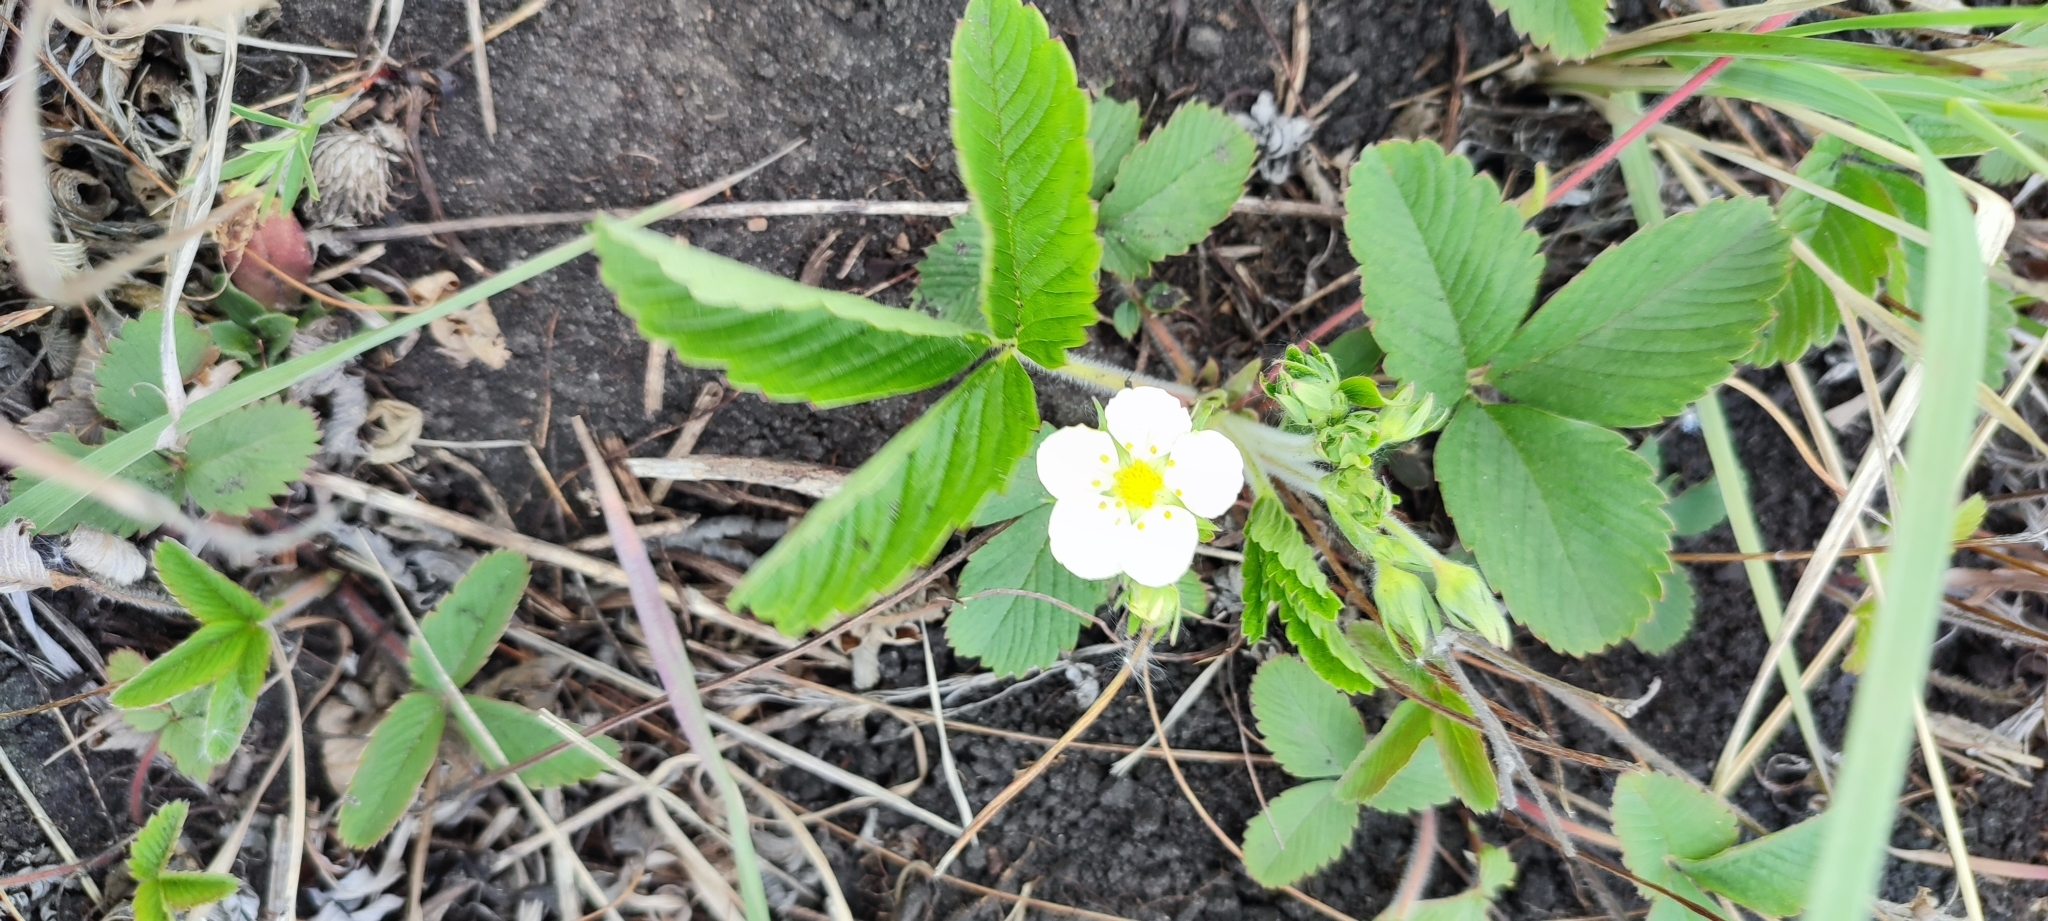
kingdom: Plantae
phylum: Tracheophyta
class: Magnoliopsida
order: Rosales
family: Rosaceae
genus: Fragaria
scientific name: Fragaria viridis
